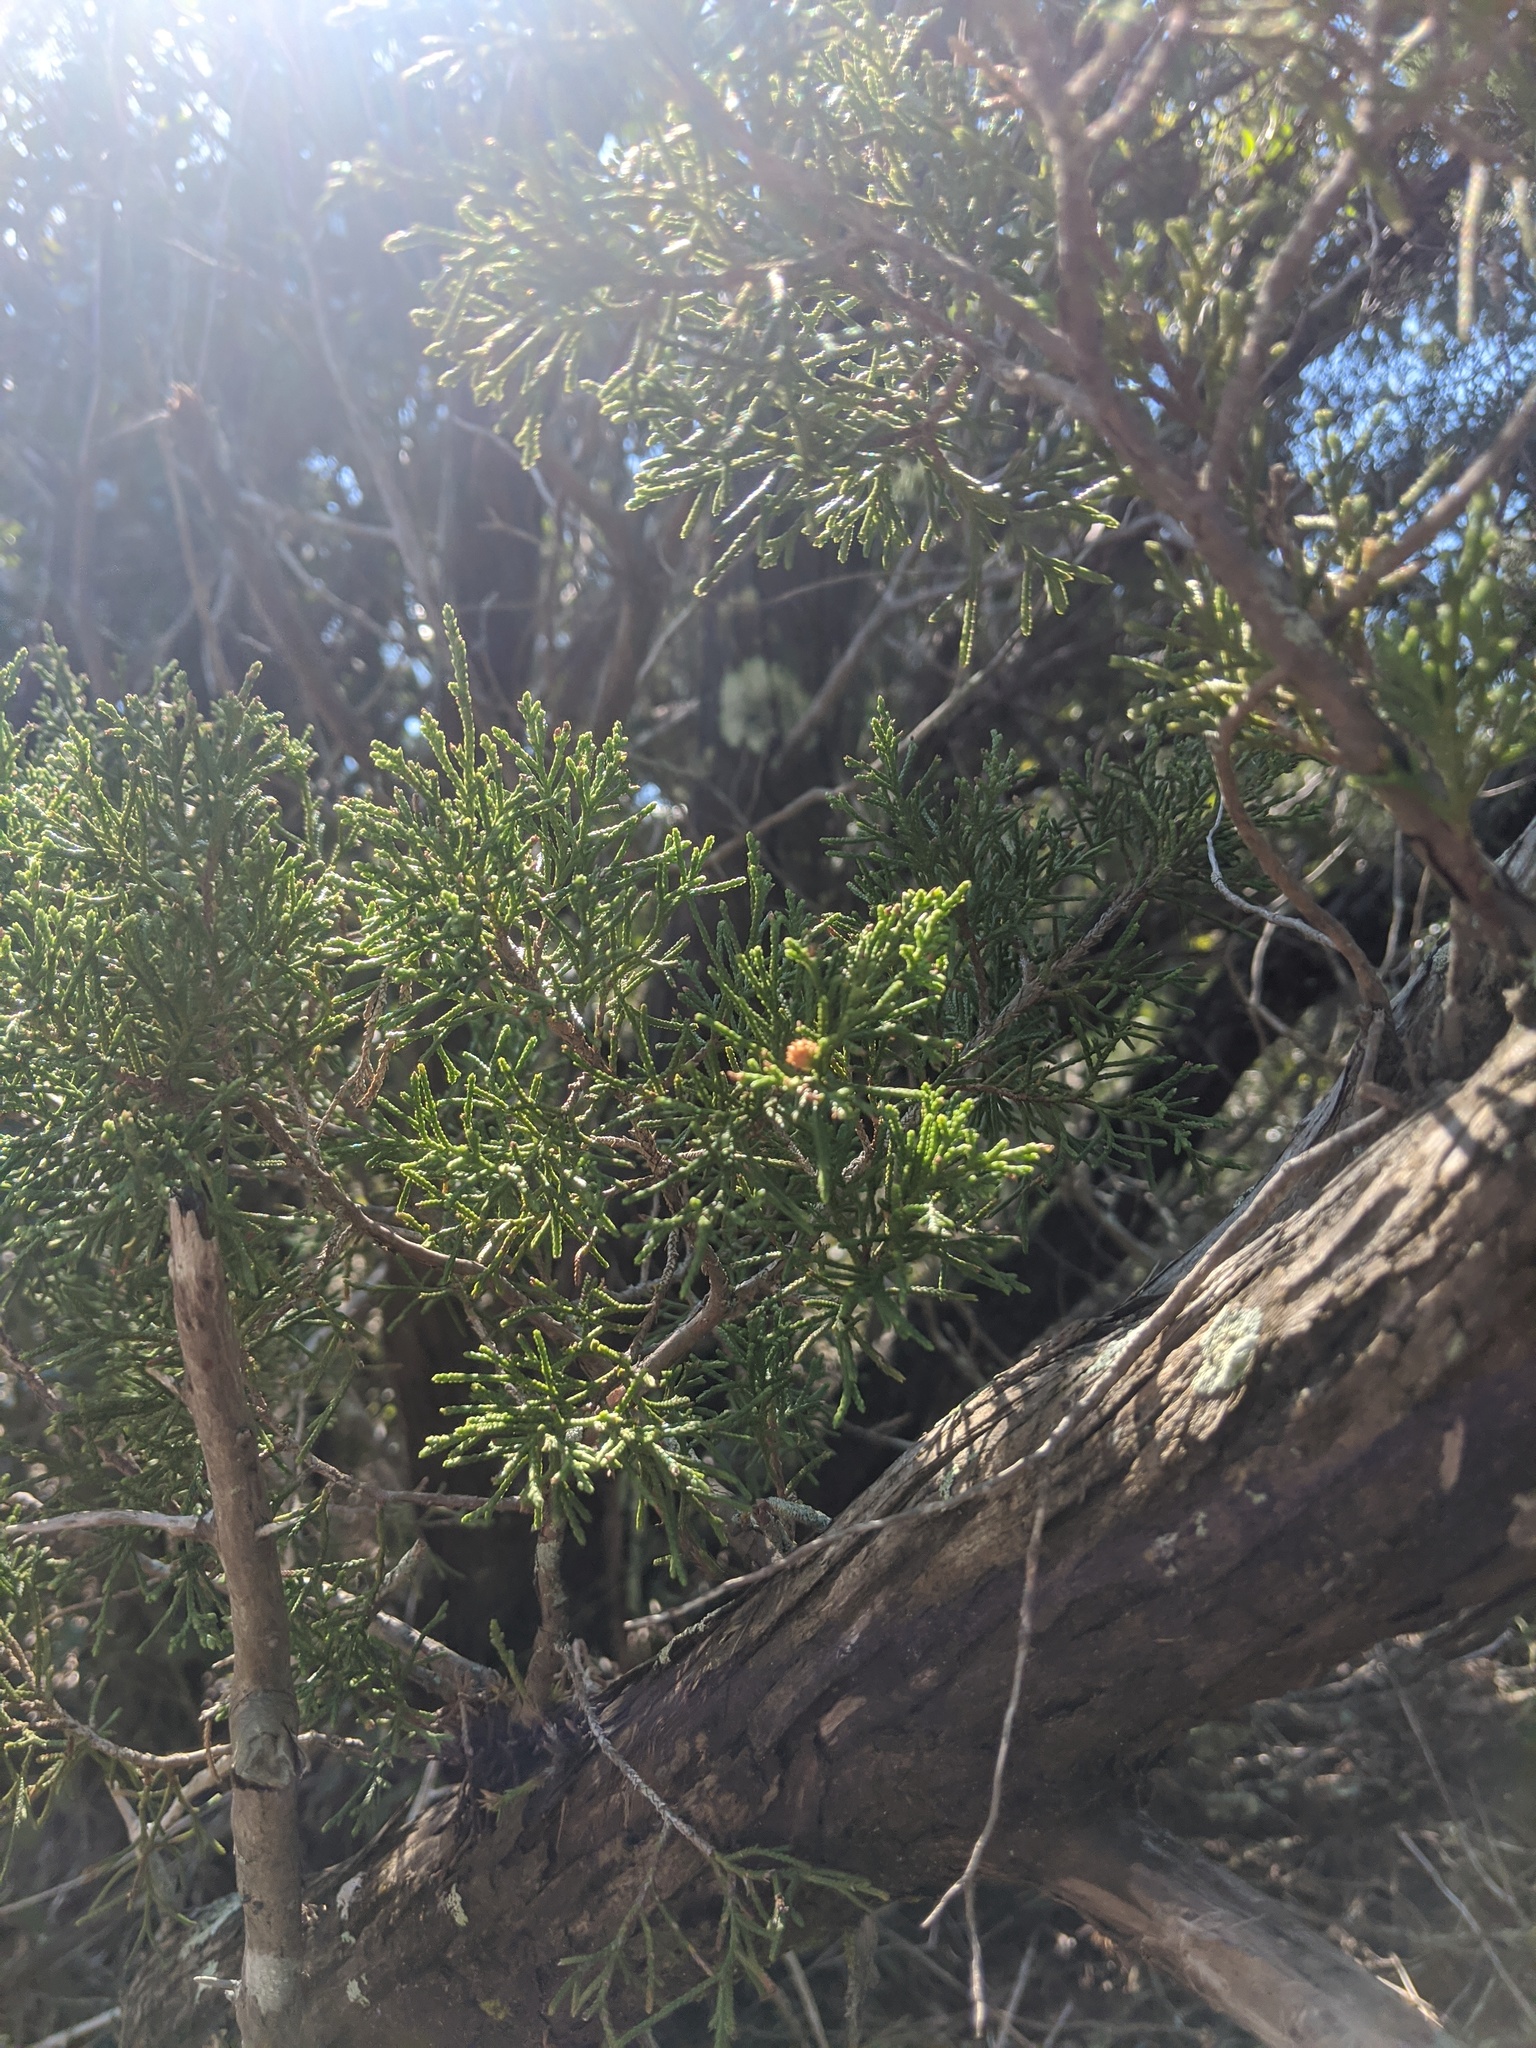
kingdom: Plantae
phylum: Tracheophyta
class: Pinopsida
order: Pinales
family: Cupressaceae
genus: Juniperus
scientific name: Juniperus virginiana
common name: Red juniper
